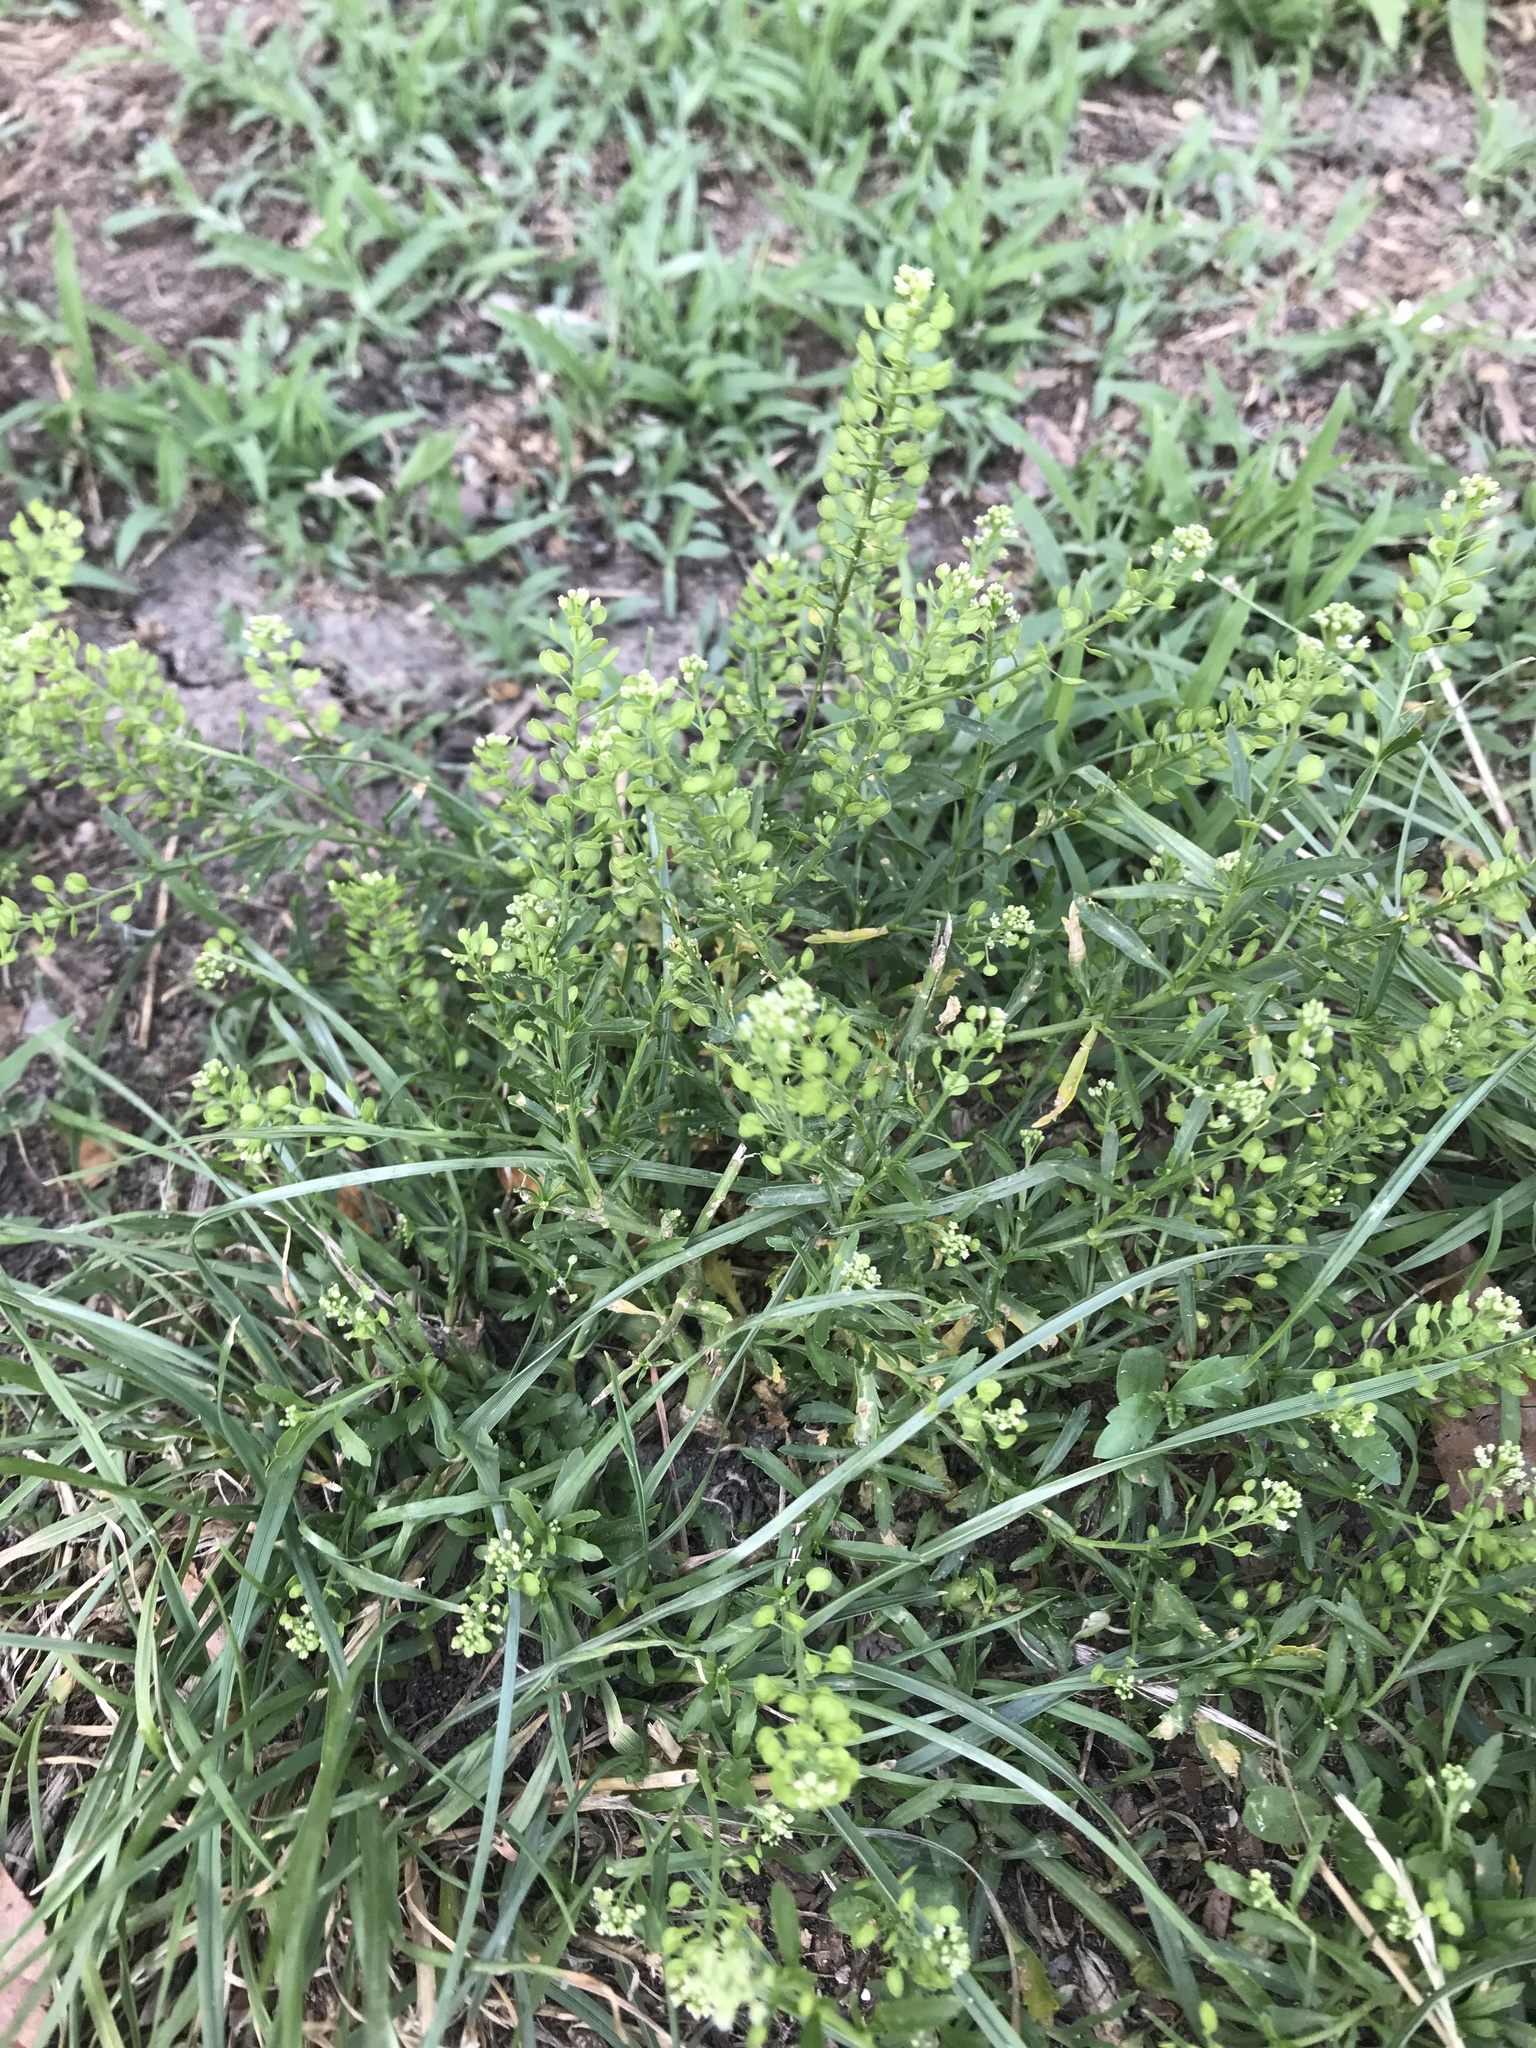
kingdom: Plantae
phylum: Tracheophyta
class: Magnoliopsida
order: Brassicales
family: Brassicaceae
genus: Lepidium
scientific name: Lepidium virginicum
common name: Least pepperwort
